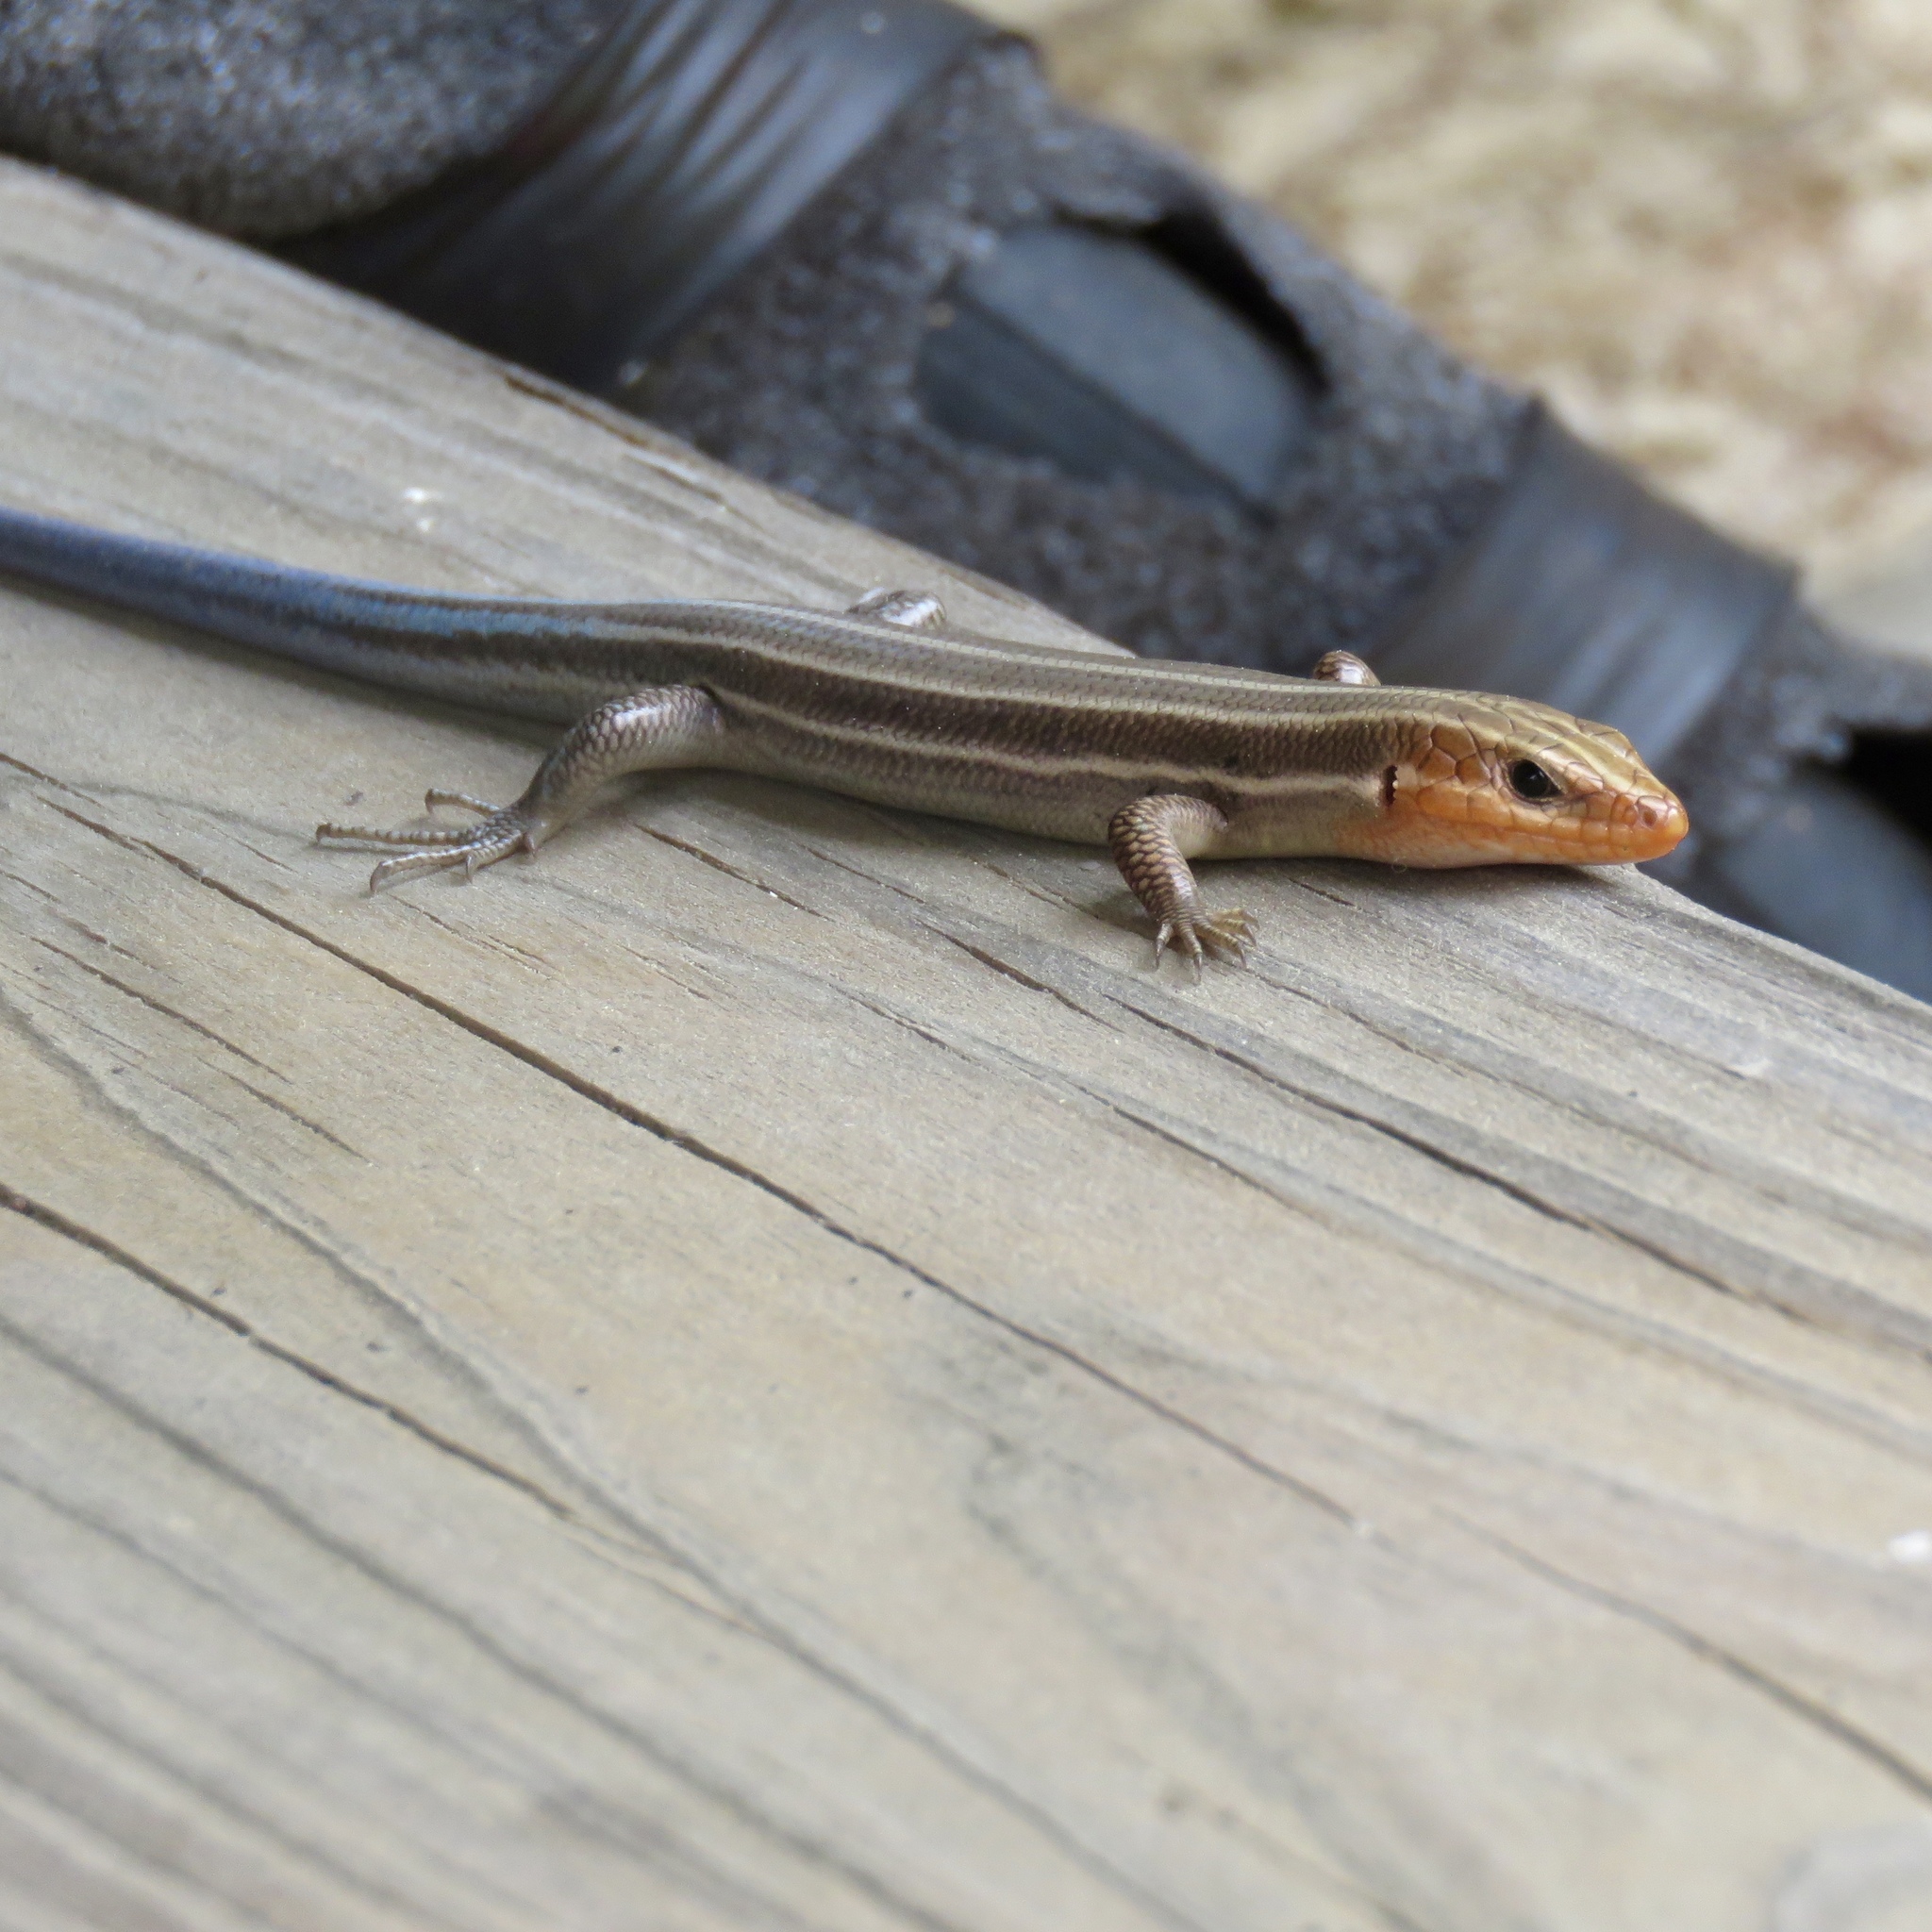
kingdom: Animalia
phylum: Chordata
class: Squamata
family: Scincidae
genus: Plestiodon
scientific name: Plestiodon fasciatus
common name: Five-lined skink
